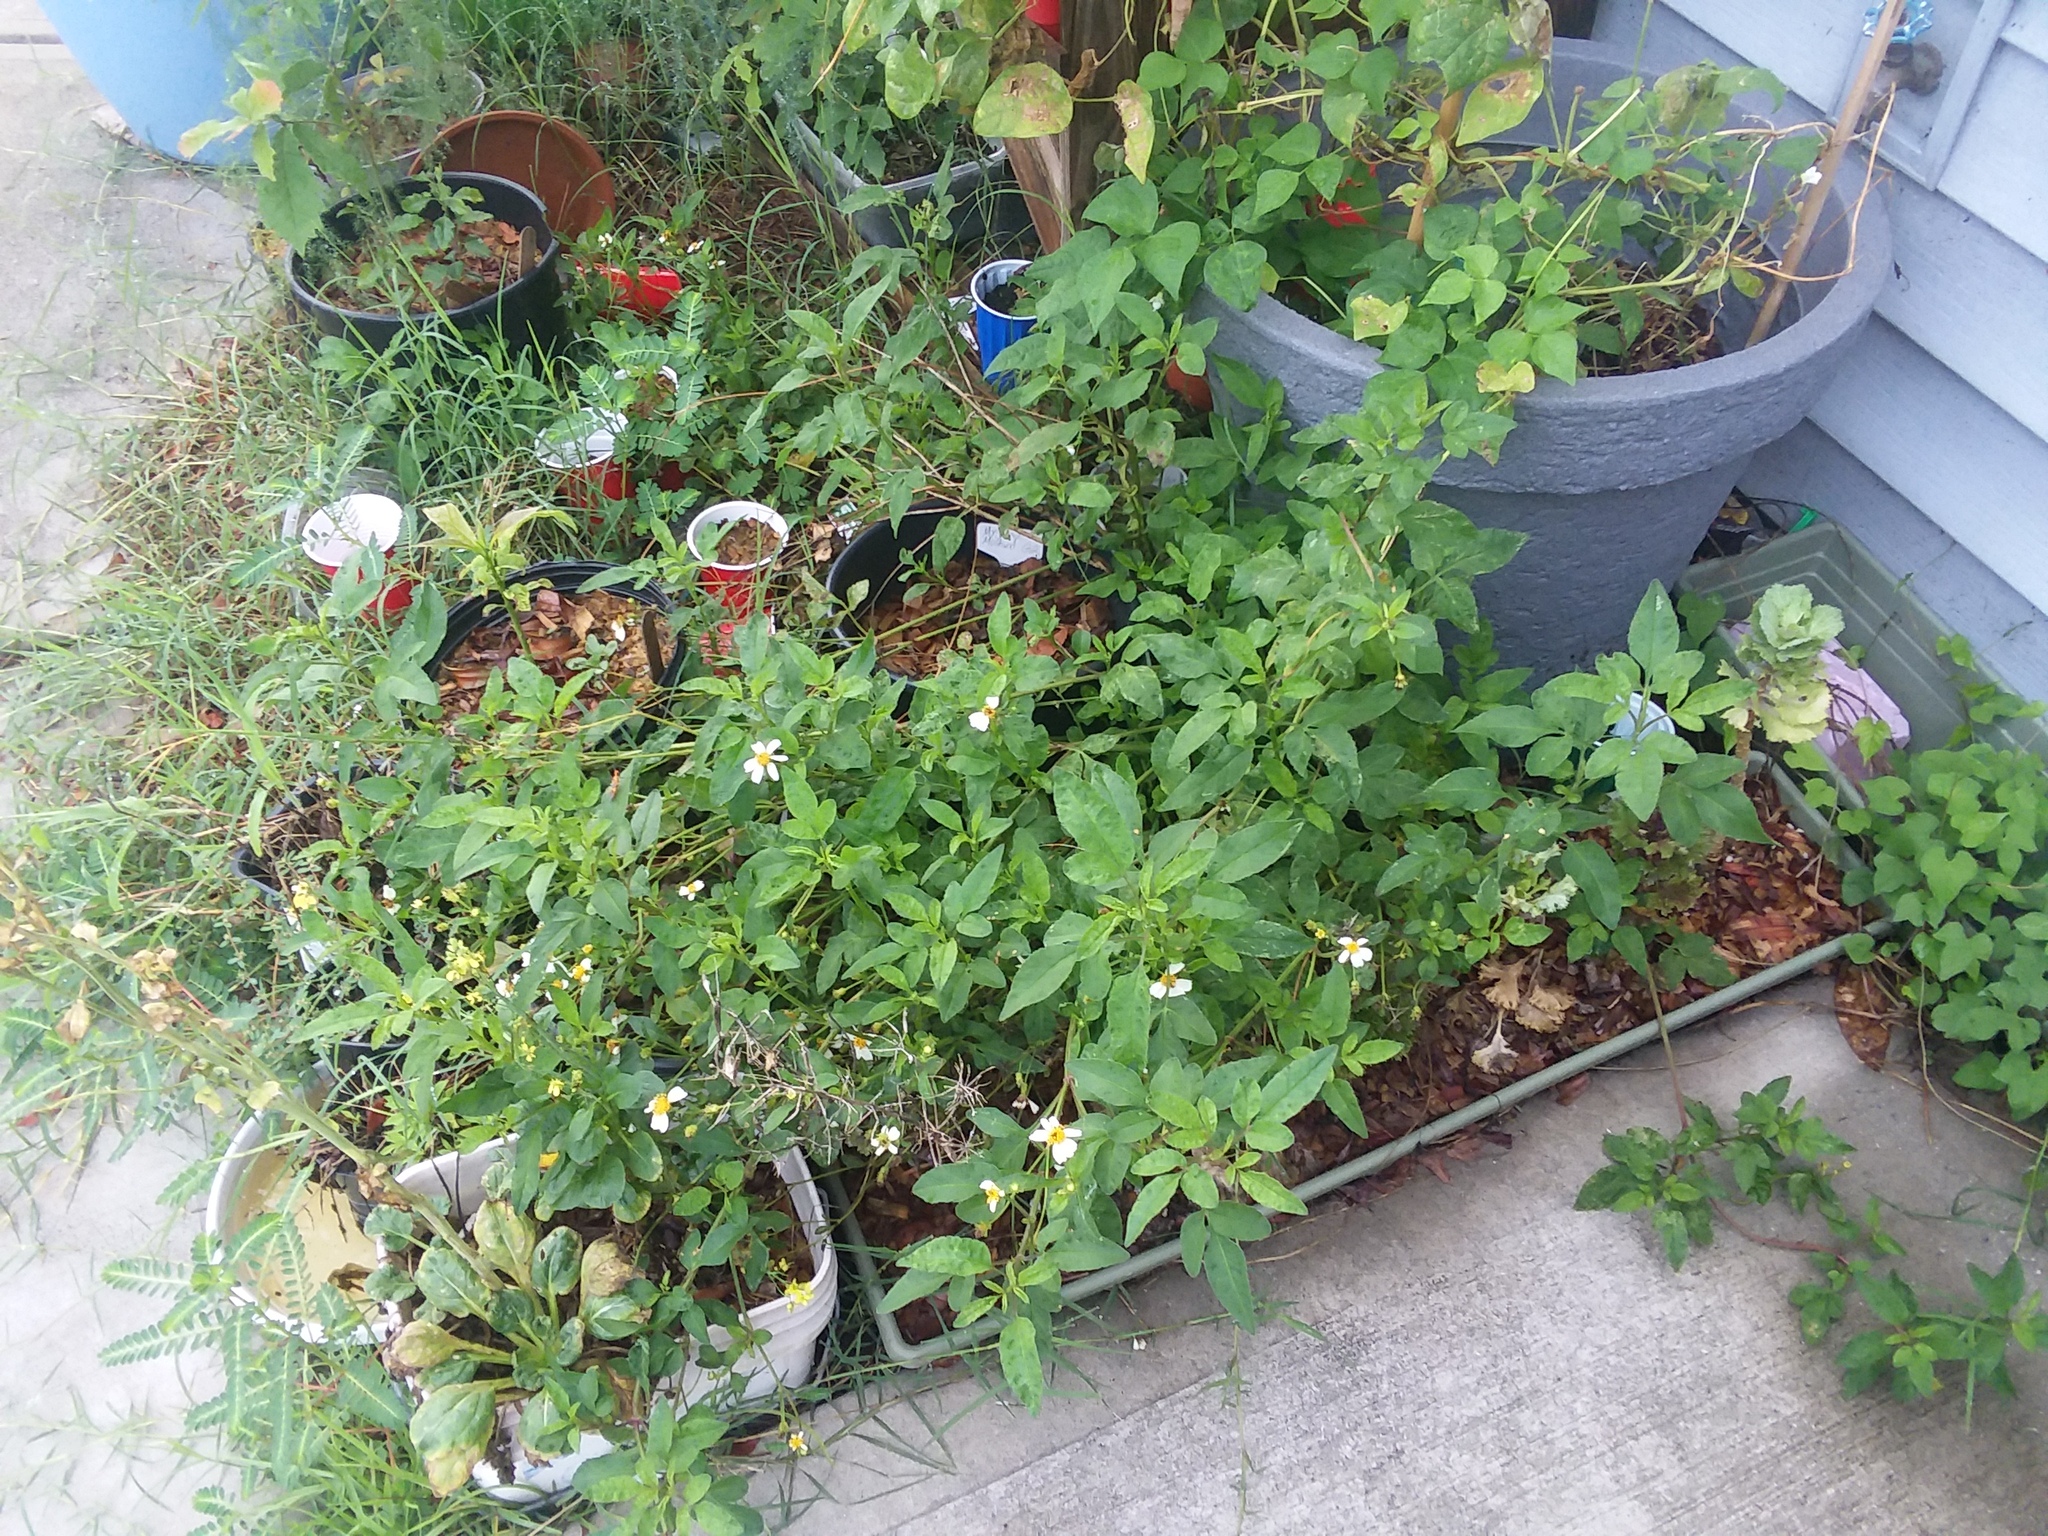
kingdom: Plantae
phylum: Tracheophyta
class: Magnoliopsida
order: Asterales
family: Asteraceae
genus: Bidens
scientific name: Bidens alba
